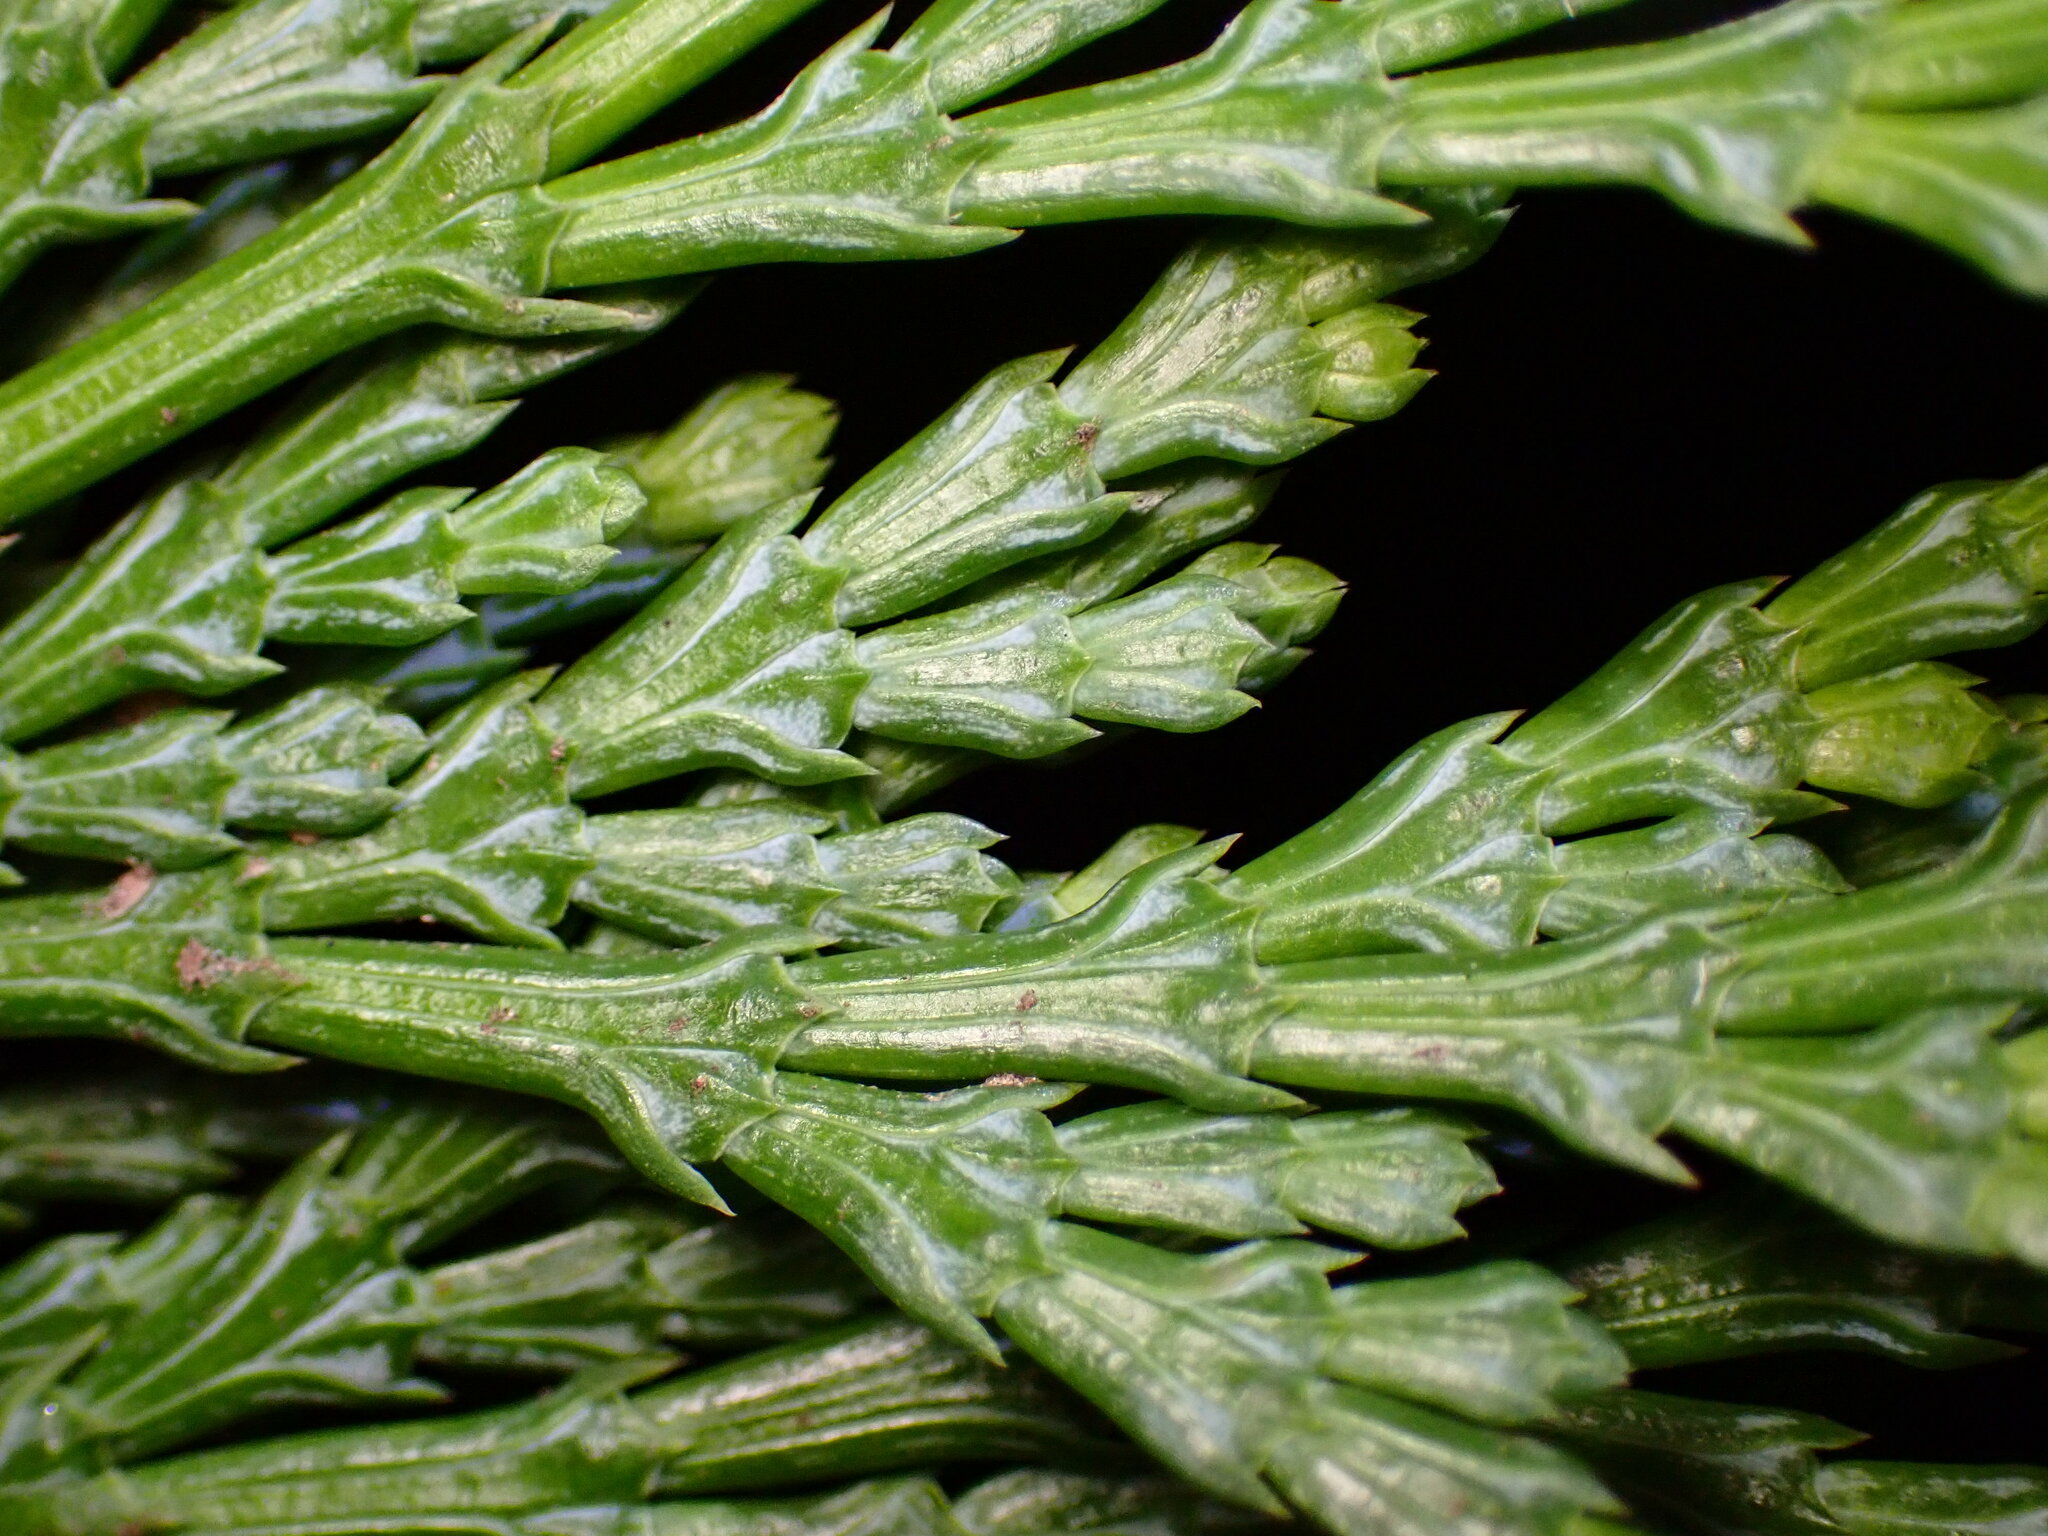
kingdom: Plantae
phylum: Tracheophyta
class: Pinopsida
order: Pinales
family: Cupressaceae
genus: Calocedrus
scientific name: Calocedrus decurrens
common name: Californian incense-cedar
